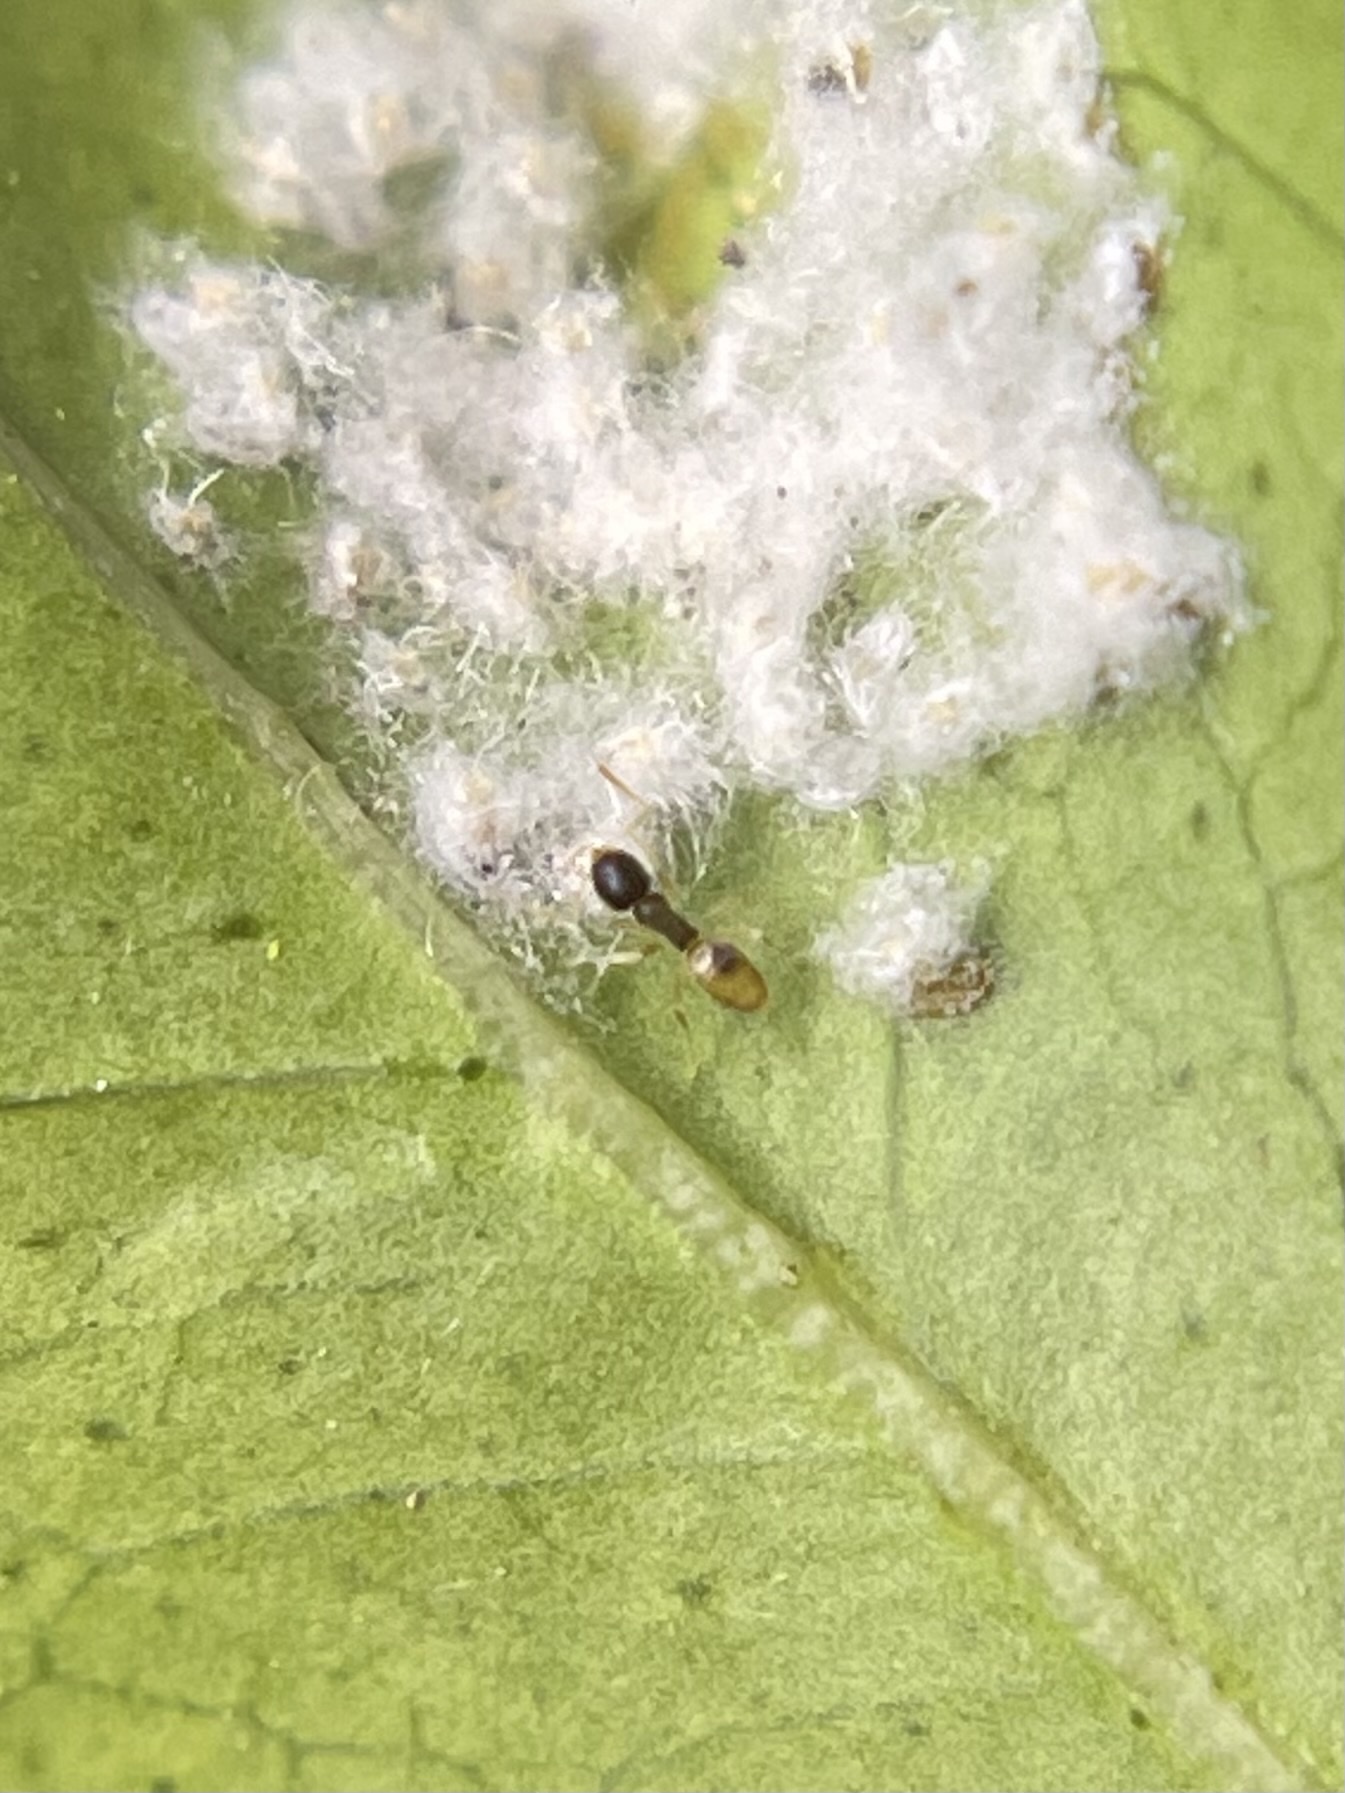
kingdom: Animalia
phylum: Arthropoda
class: Insecta
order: Hymenoptera
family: Formicidae
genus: Tapinoma
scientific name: Tapinoma melanocephalum
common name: Ghost ant
